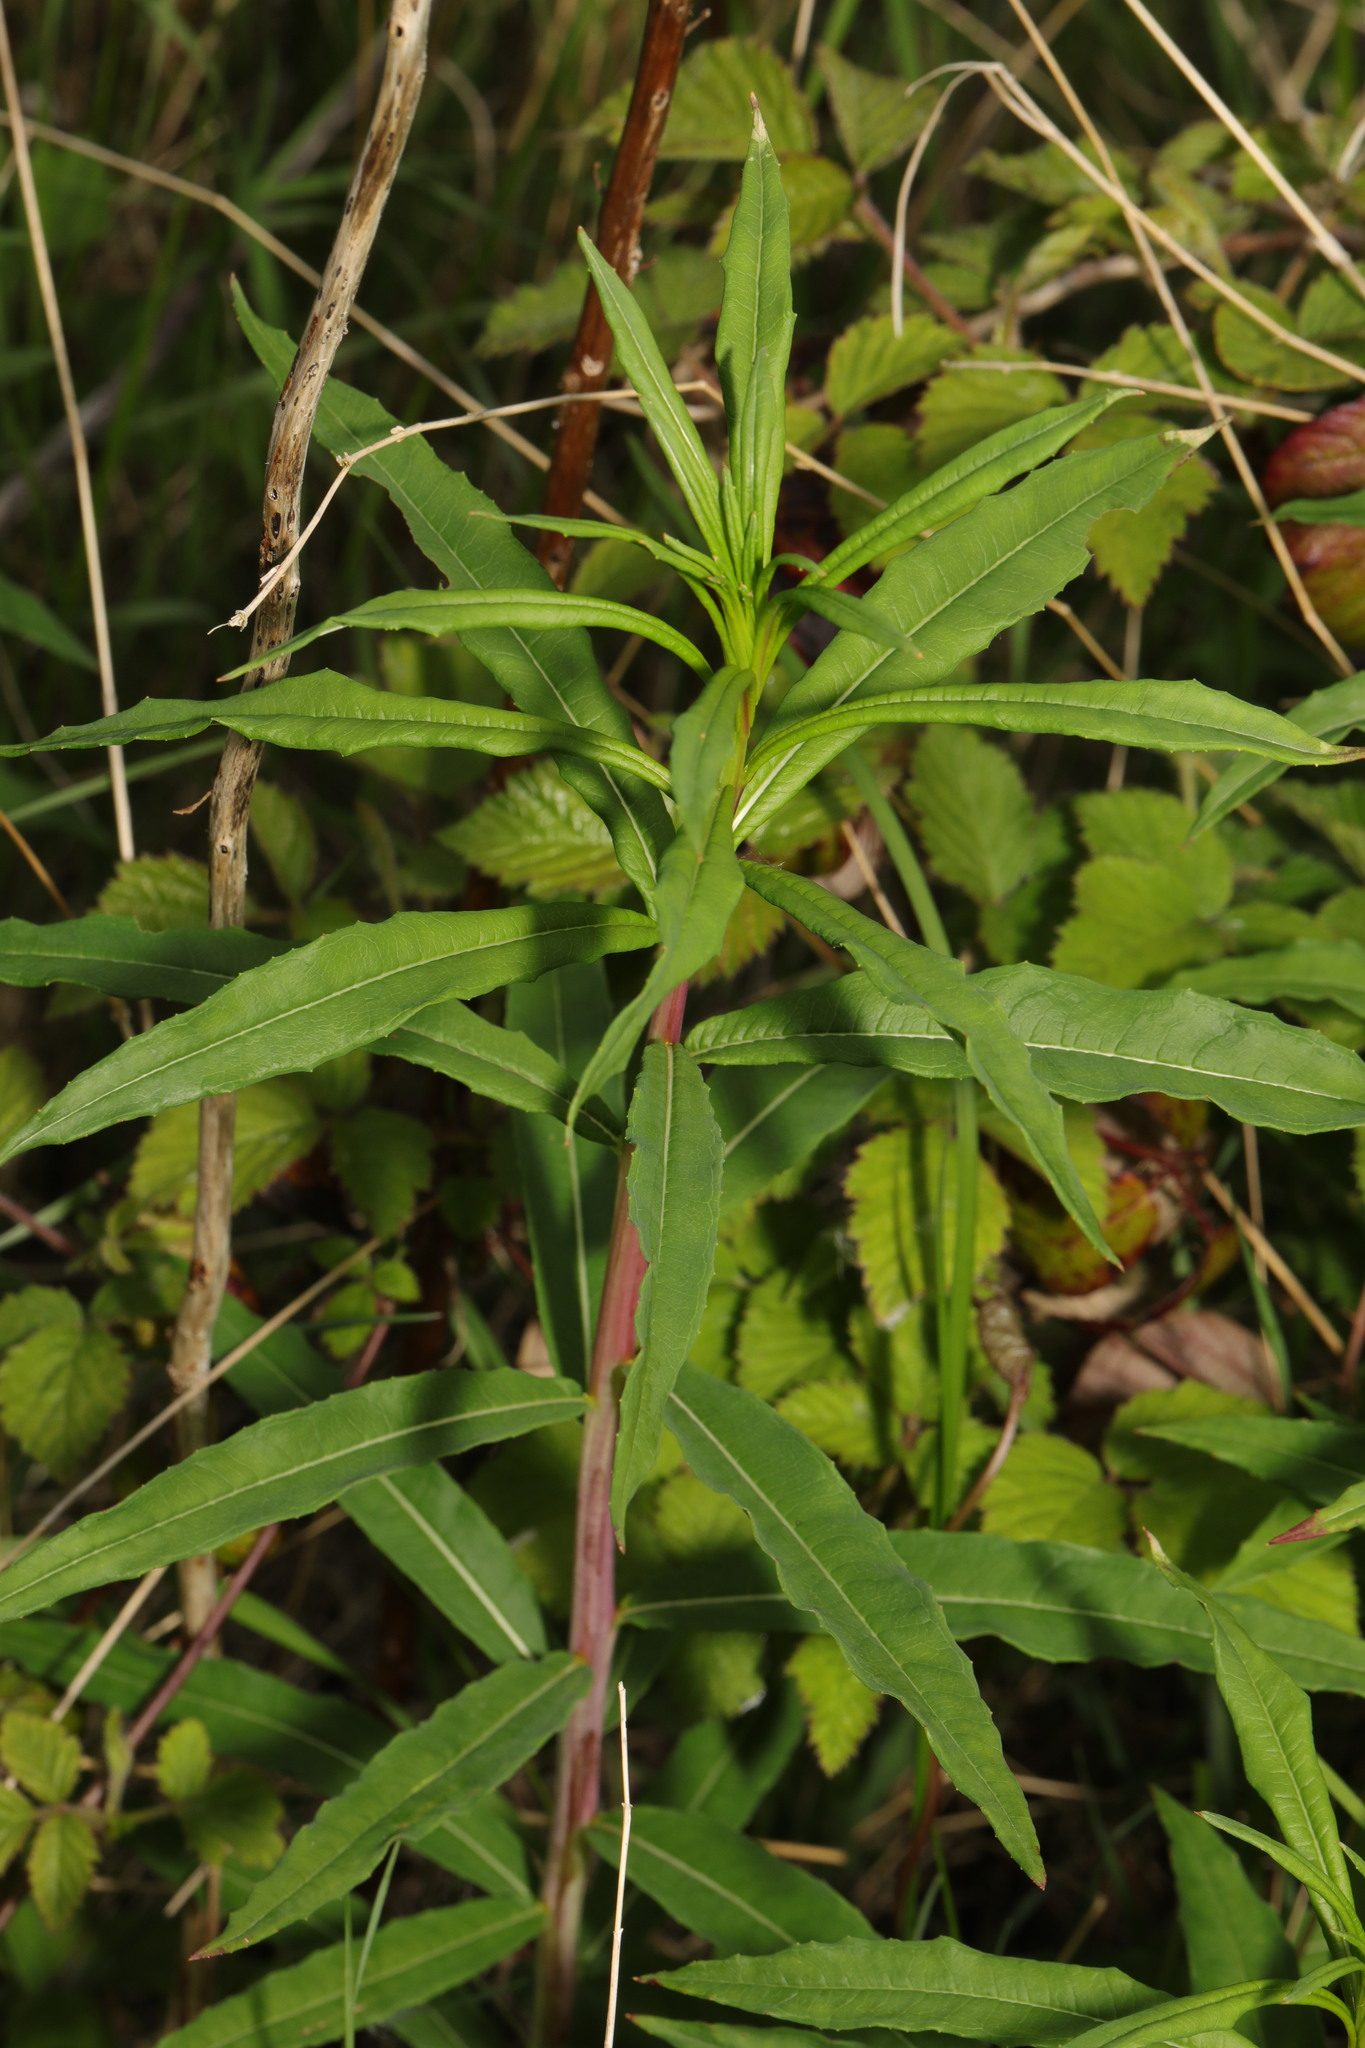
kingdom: Plantae
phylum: Tracheophyta
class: Magnoliopsida
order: Myrtales
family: Onagraceae
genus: Chamaenerion
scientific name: Chamaenerion angustifolium
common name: Fireweed
